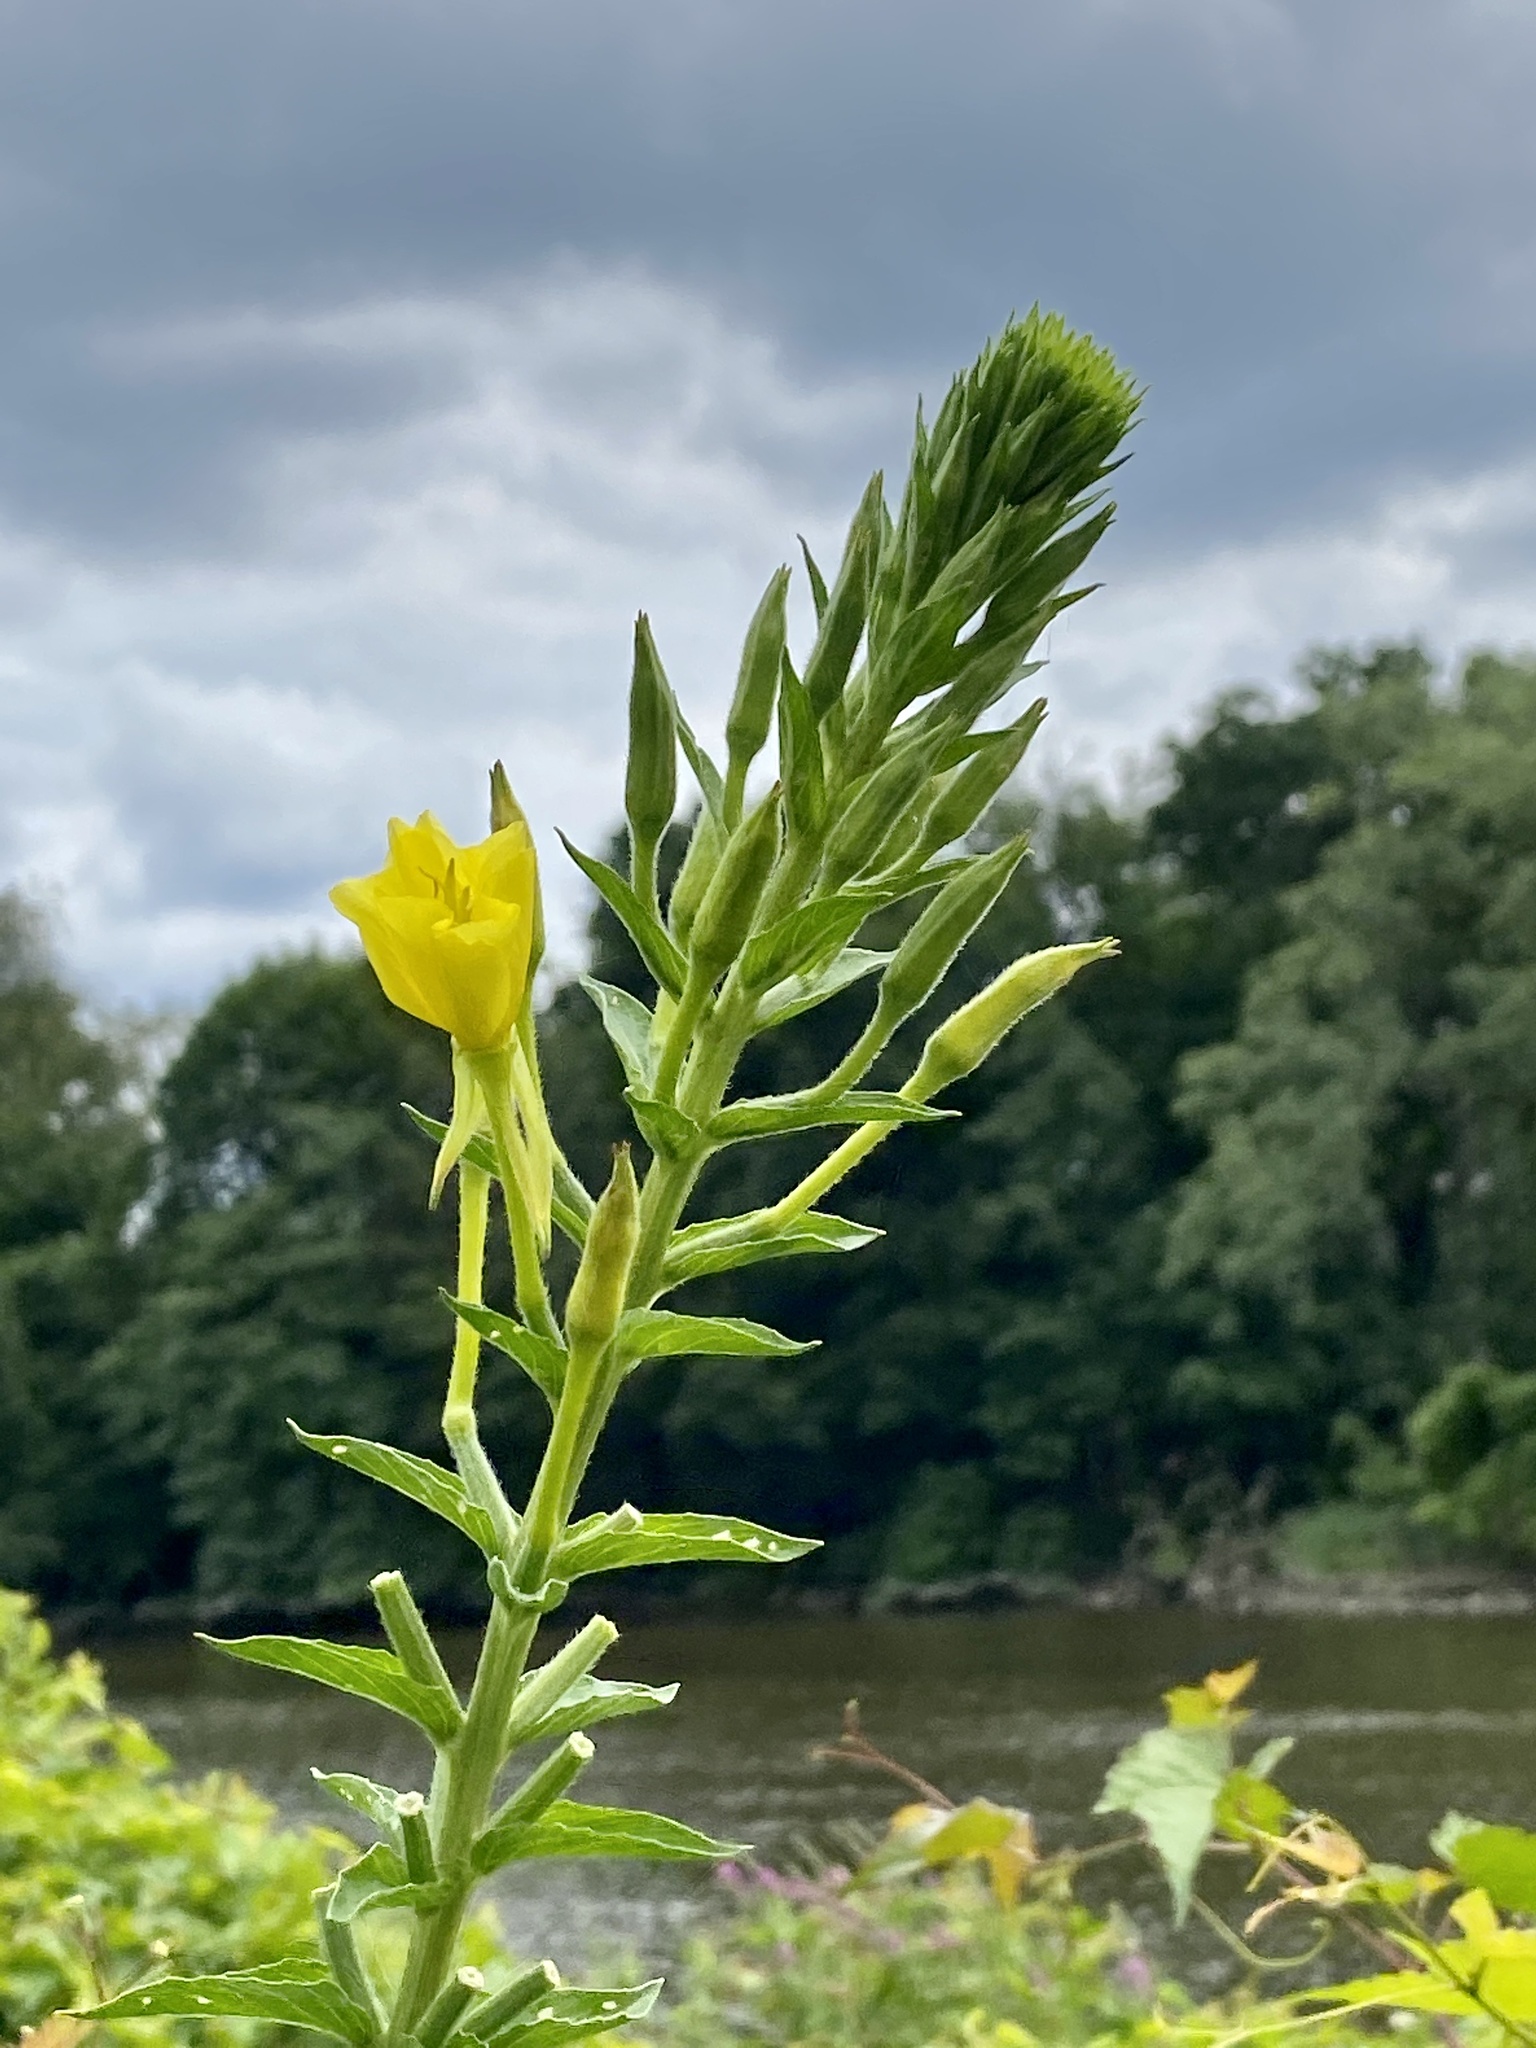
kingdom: Plantae
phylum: Tracheophyta
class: Magnoliopsida
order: Myrtales
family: Onagraceae
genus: Oenothera
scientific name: Oenothera biennis
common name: Common evening-primrose
